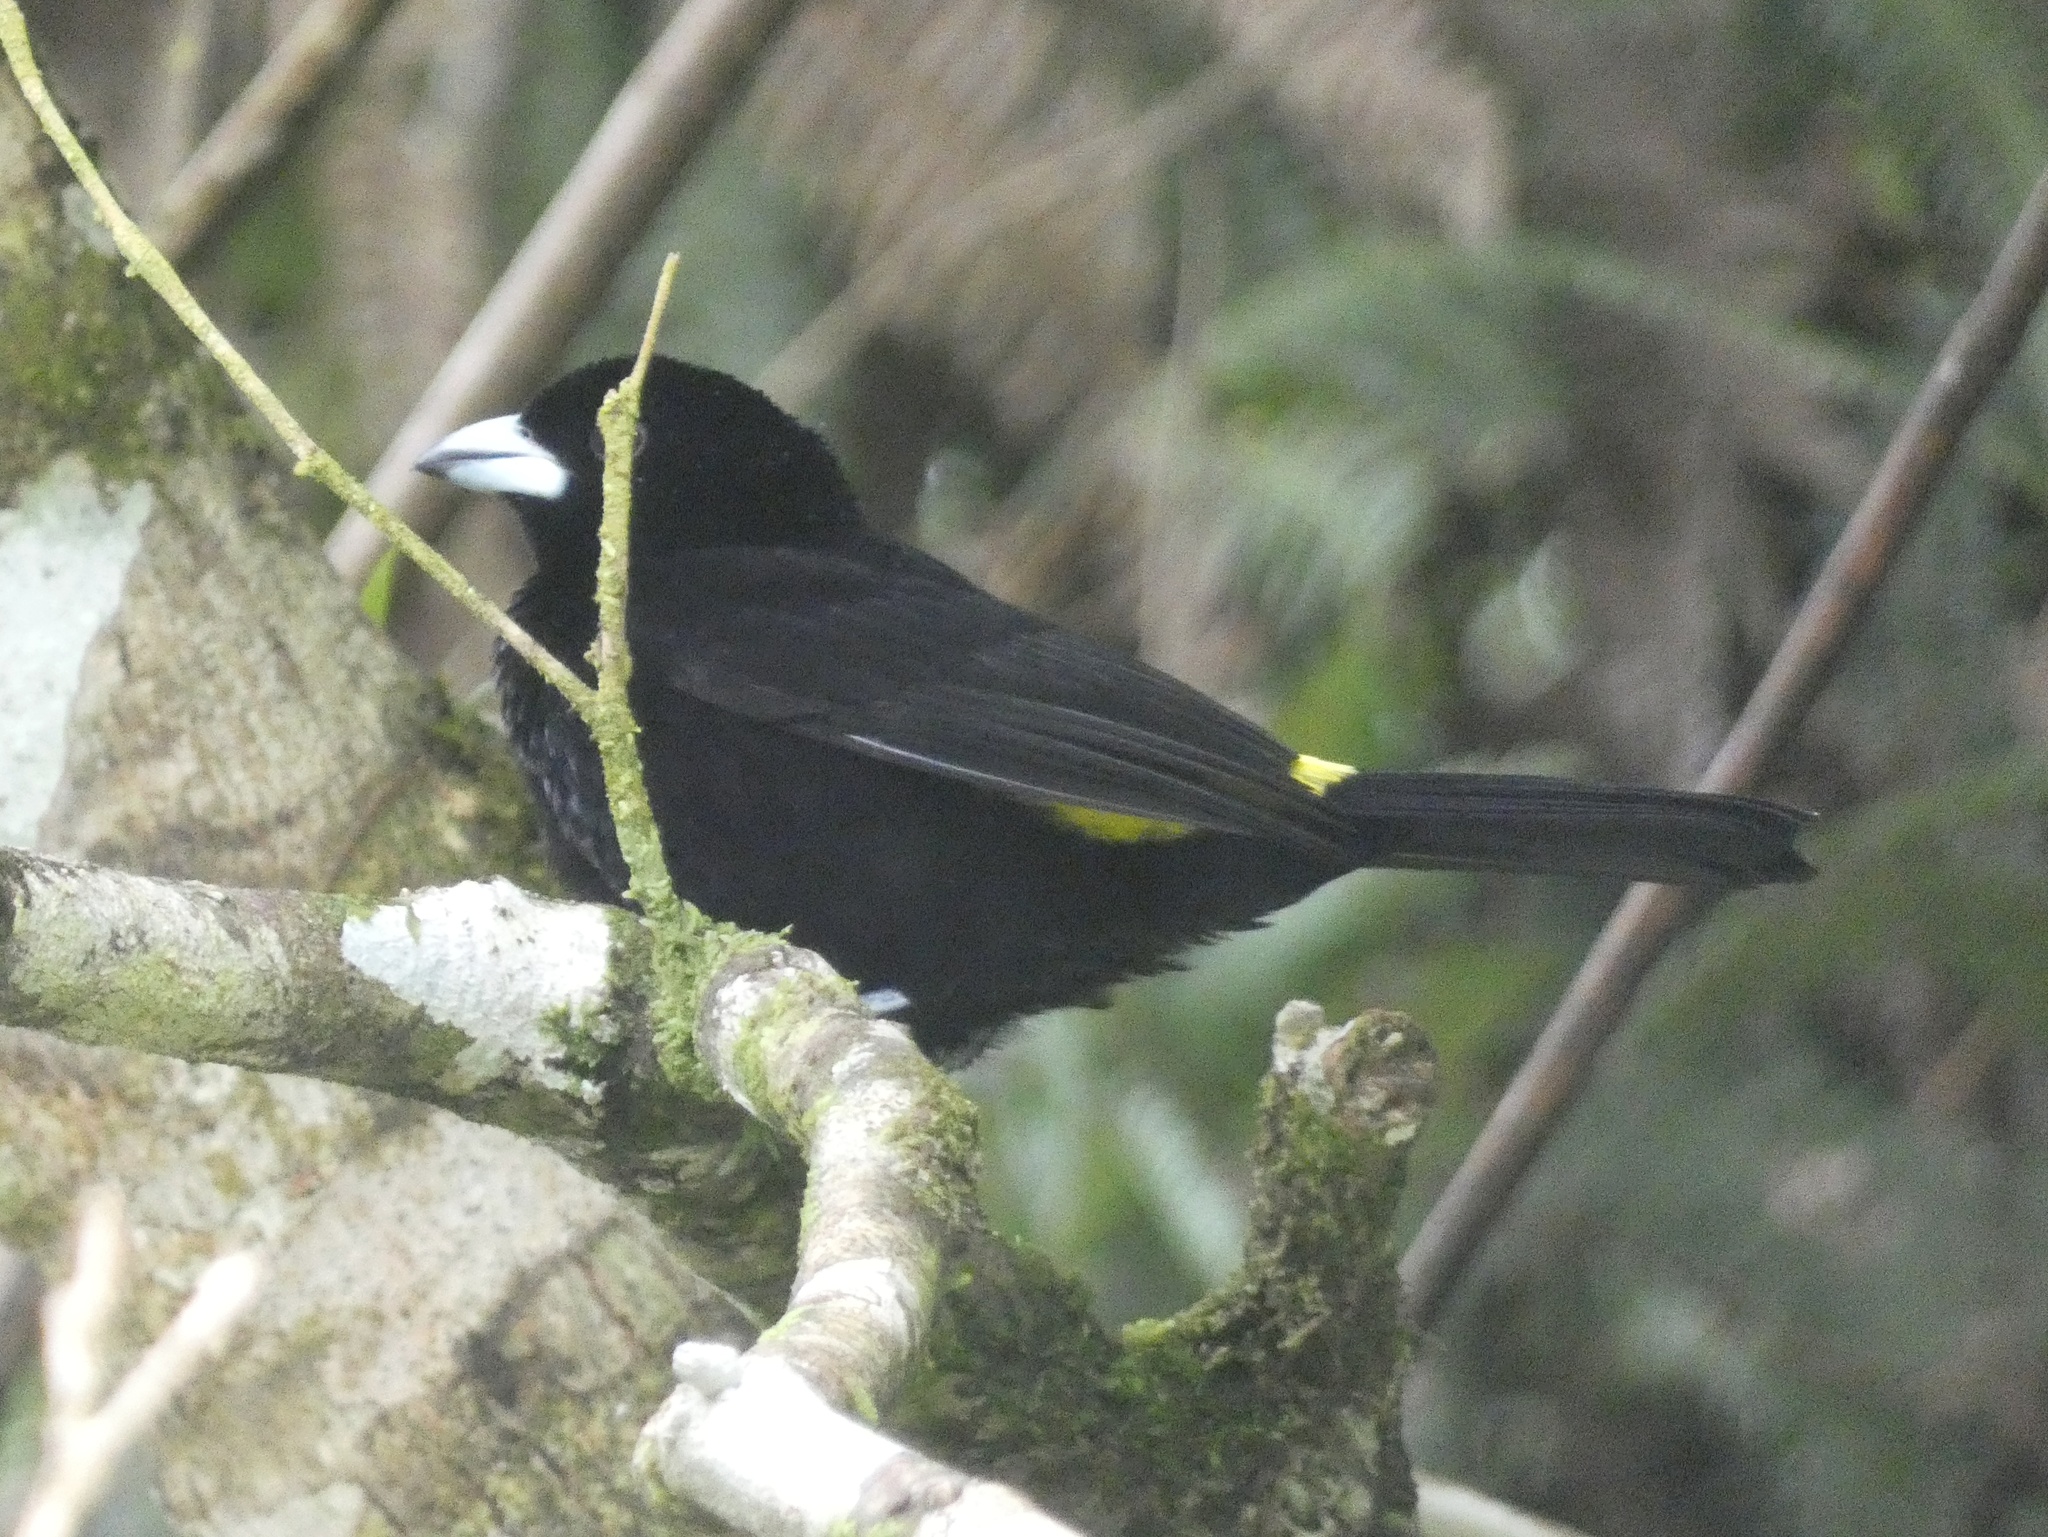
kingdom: Animalia
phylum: Chordata
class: Aves
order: Passeriformes
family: Thraupidae
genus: Ramphocelus
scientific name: Ramphocelus icteronotus
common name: Lemon-rumped tanager
